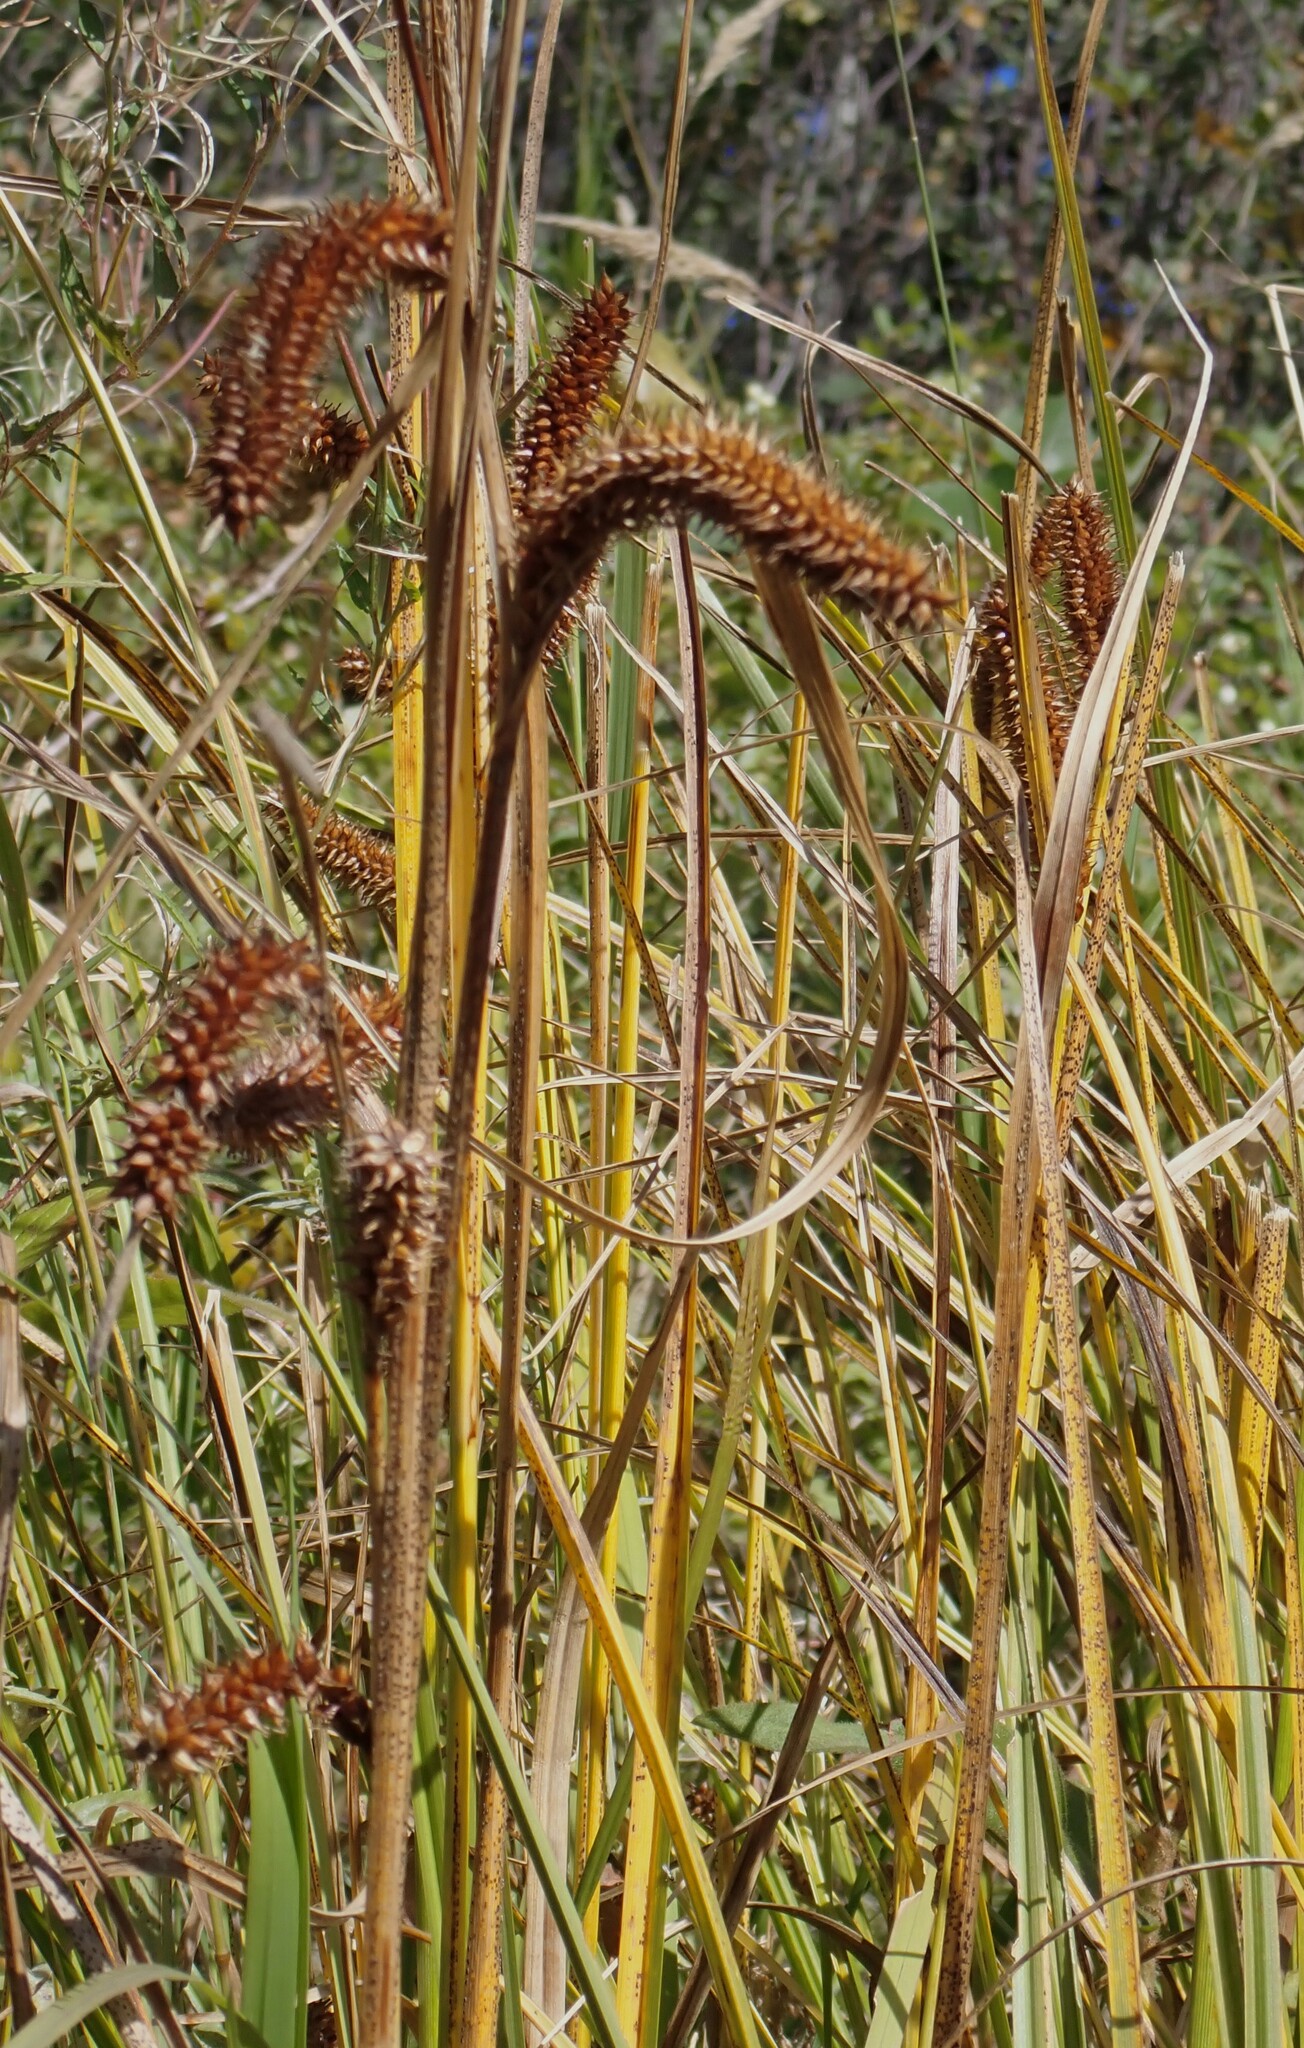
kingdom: Plantae
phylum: Tracheophyta
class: Liliopsida
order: Poales
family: Cyperaceae
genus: Carex
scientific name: Carex utriculata
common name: Beaked sedge
